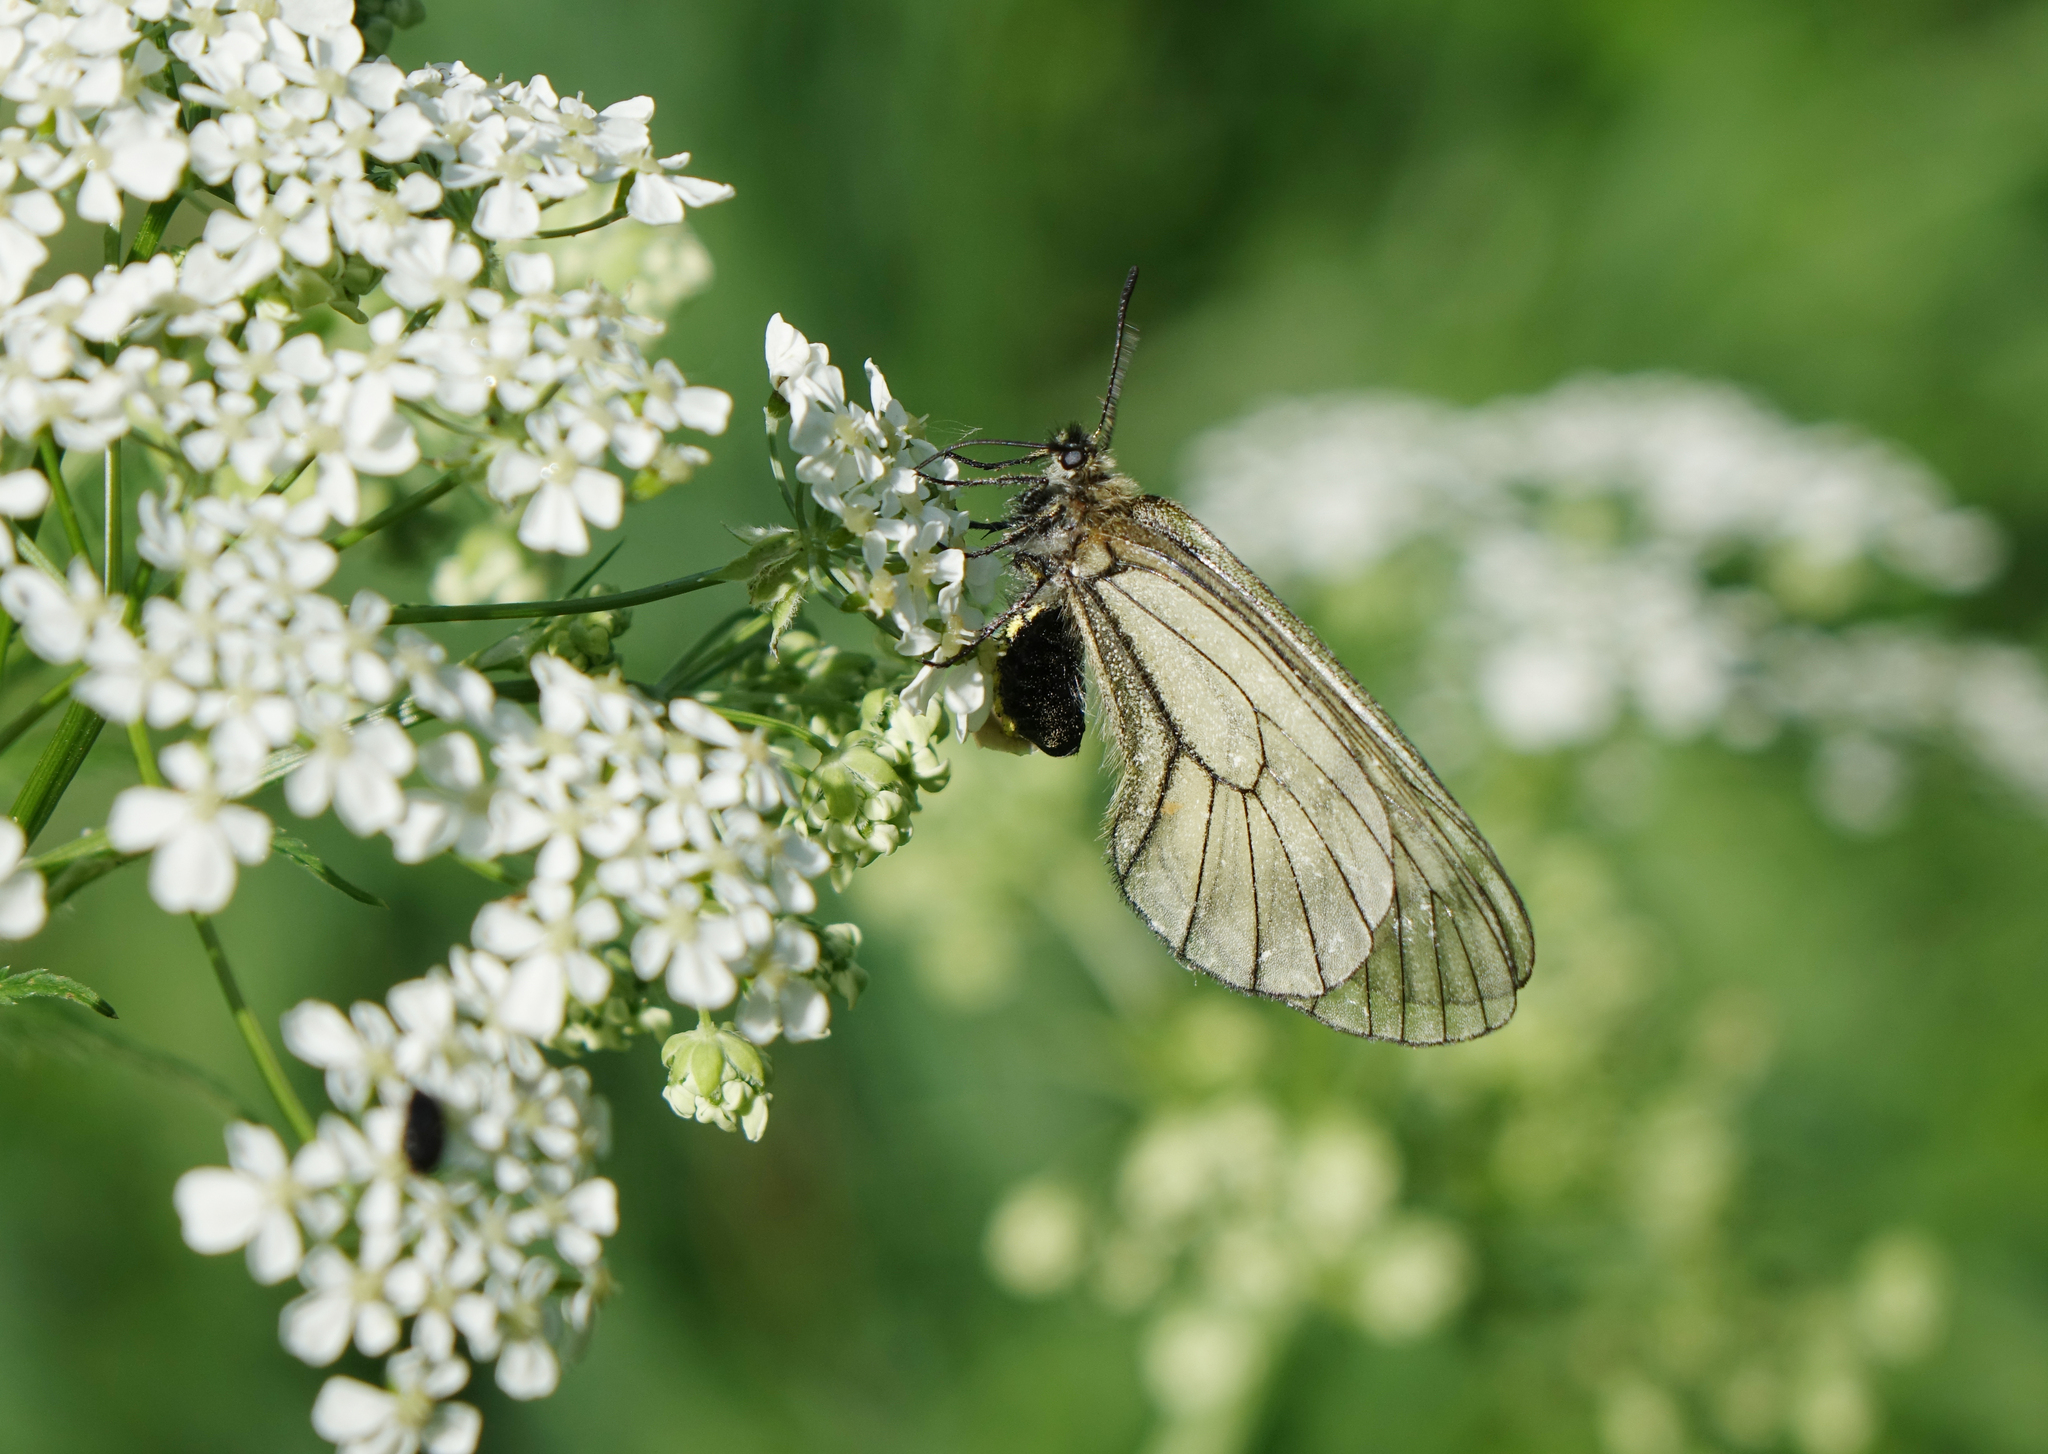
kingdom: Animalia
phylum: Arthropoda
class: Insecta
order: Lepidoptera
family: Papilionidae
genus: Parnassius
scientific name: Parnassius stubbendorfii
